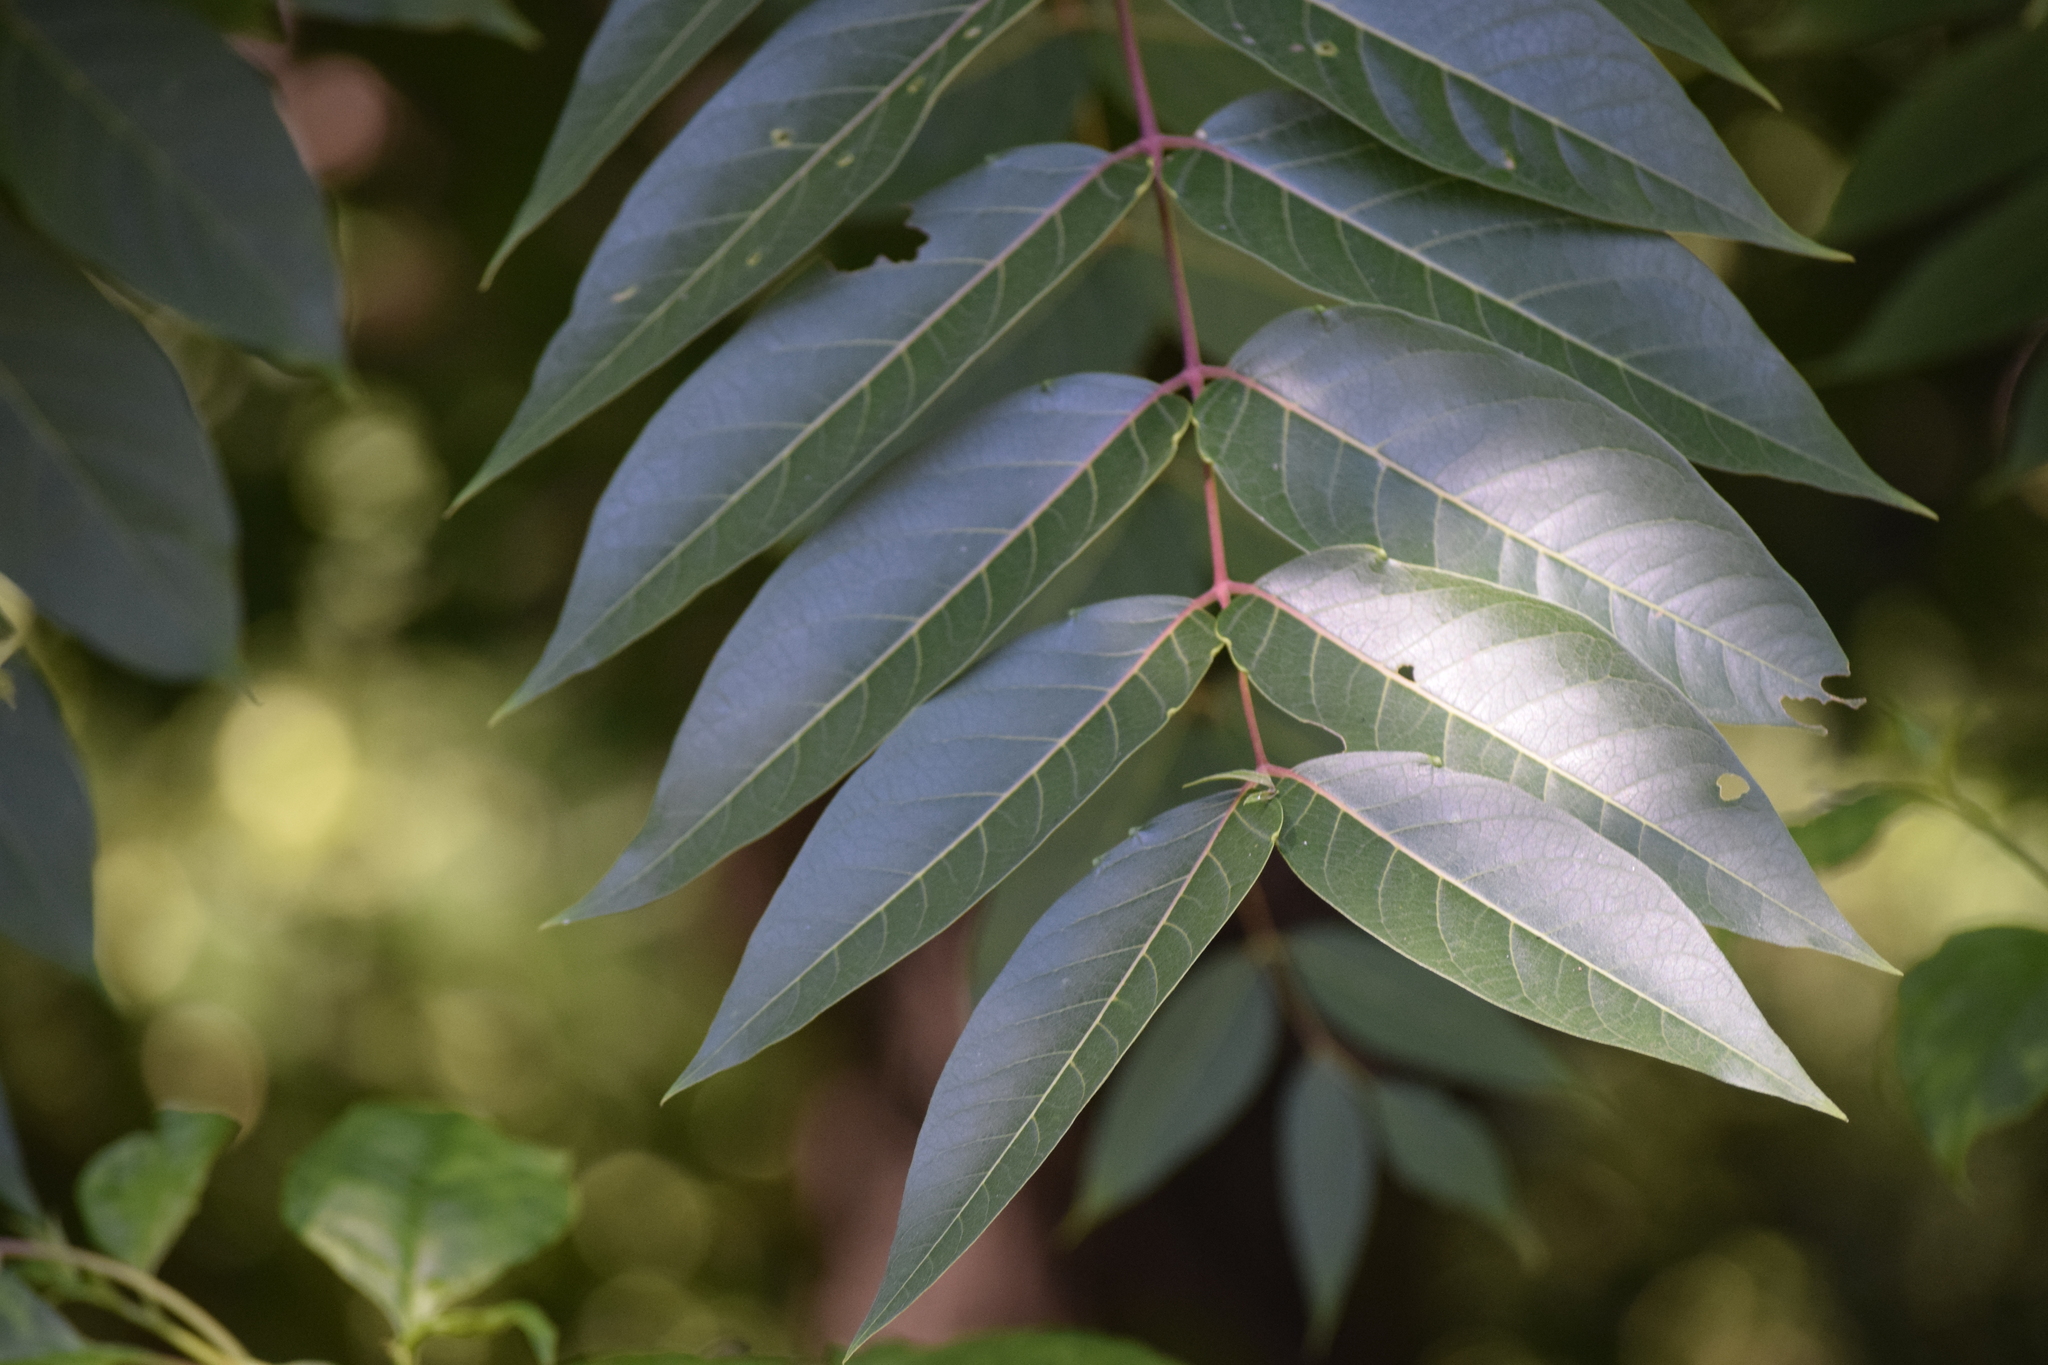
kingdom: Plantae
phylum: Tracheophyta
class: Magnoliopsida
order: Sapindales
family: Simaroubaceae
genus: Ailanthus
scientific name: Ailanthus altissima
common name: Tree-of-heaven
